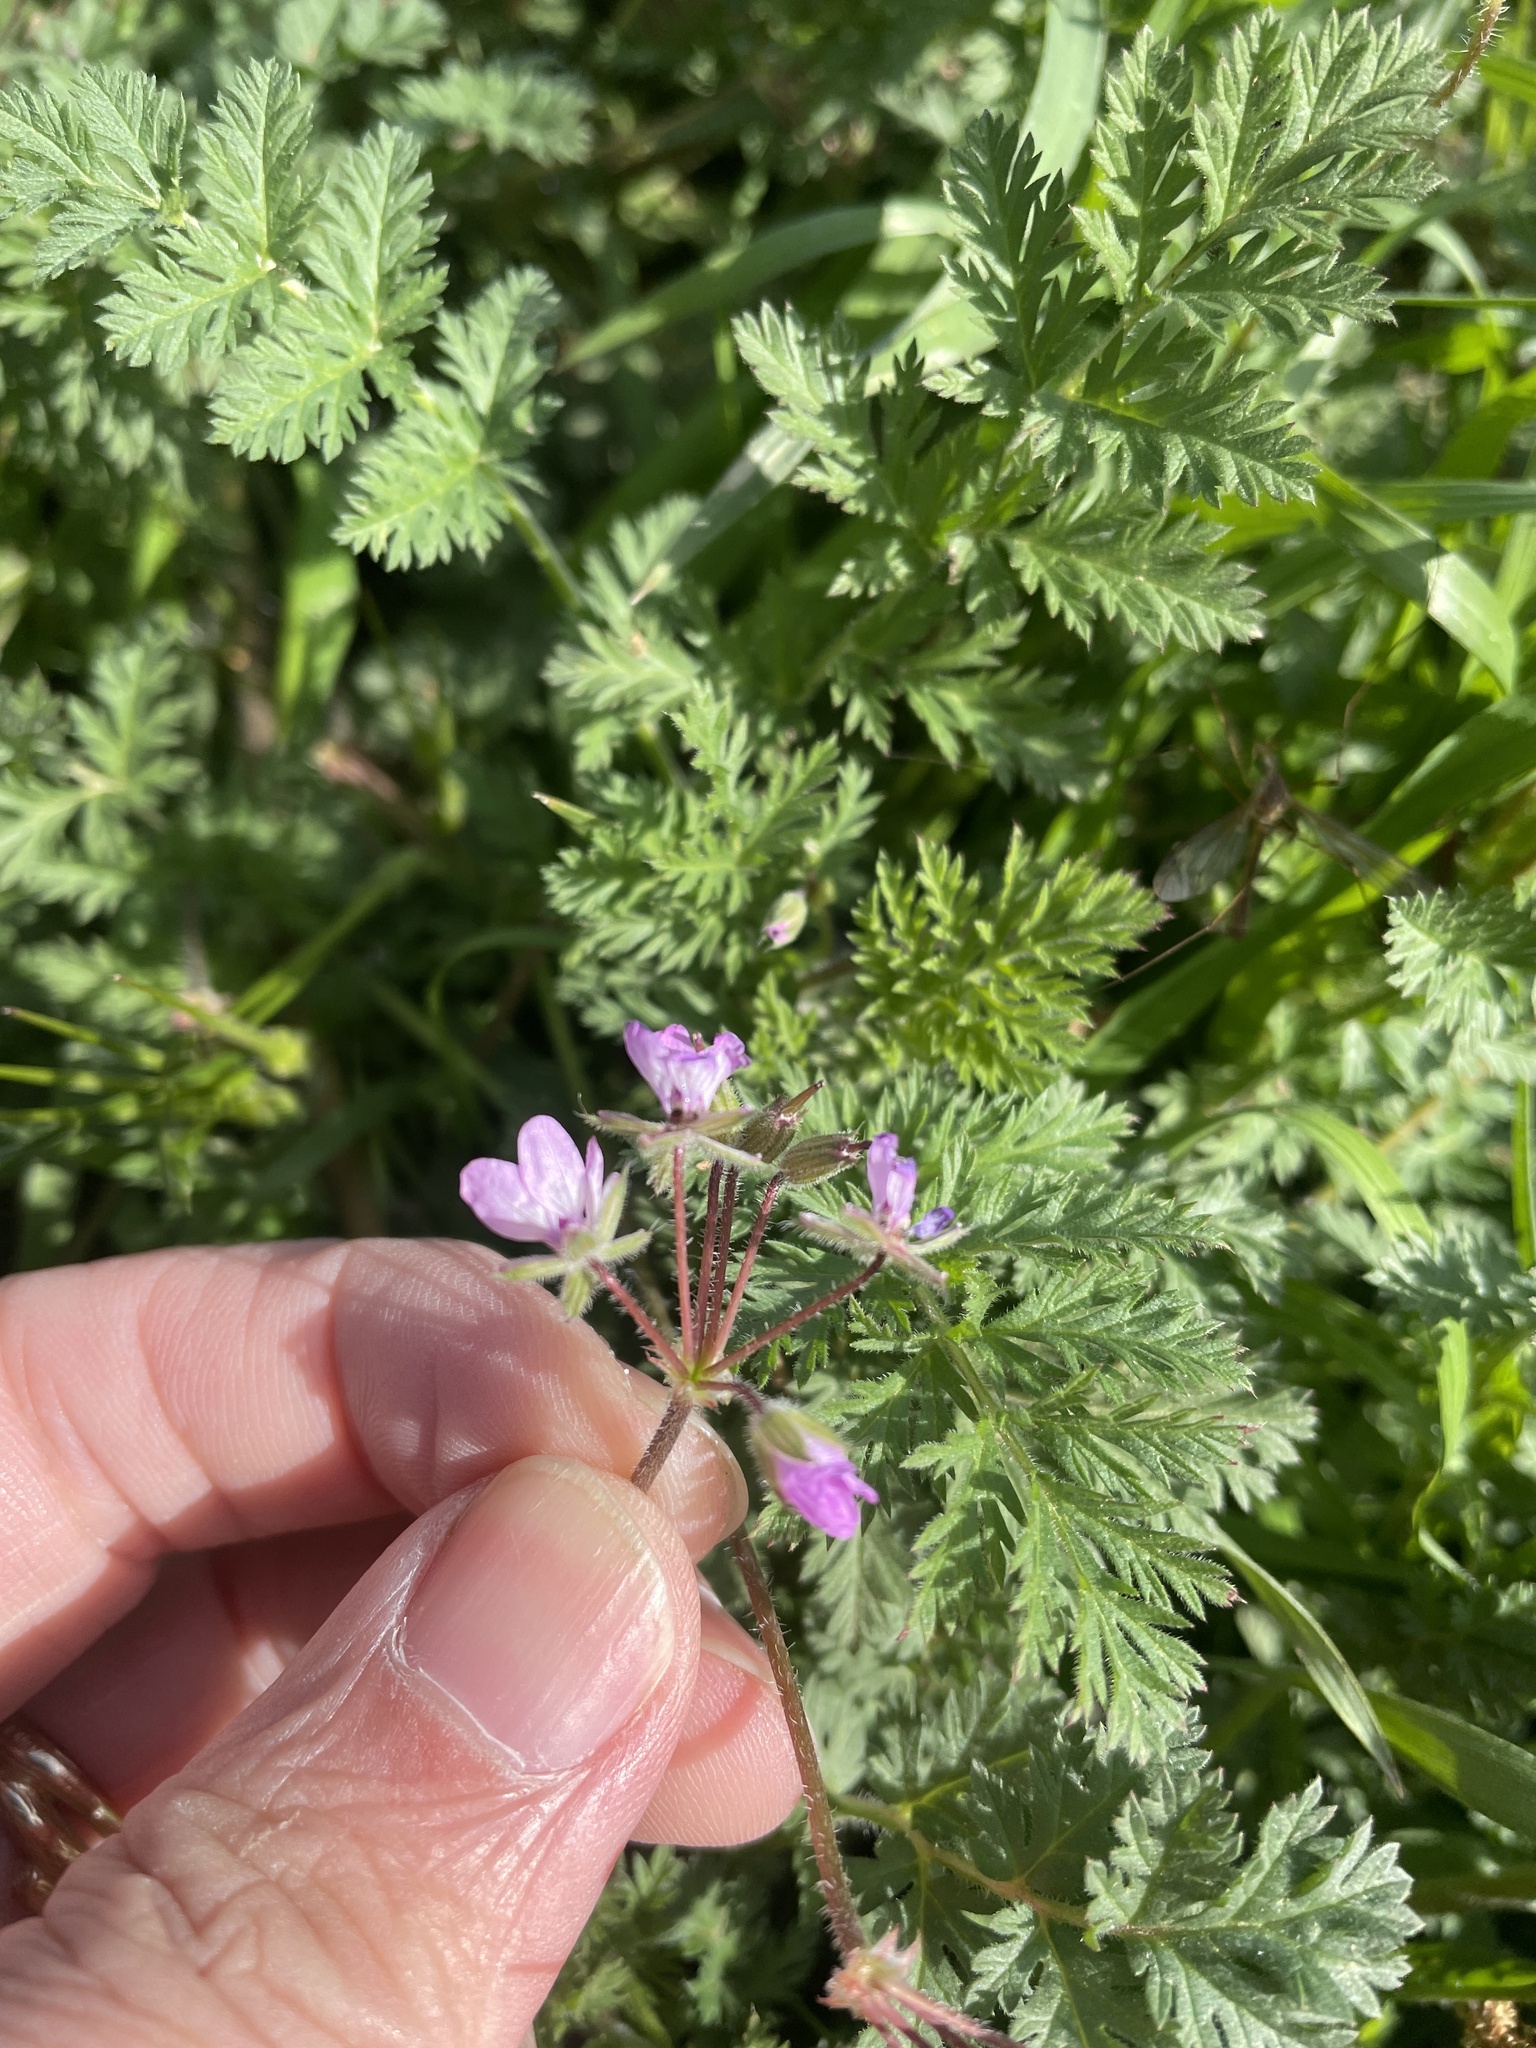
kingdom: Plantae
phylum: Tracheophyta
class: Magnoliopsida
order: Geraniales
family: Geraniaceae
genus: Erodium
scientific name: Erodium cicutarium
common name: Common stork's-bill
